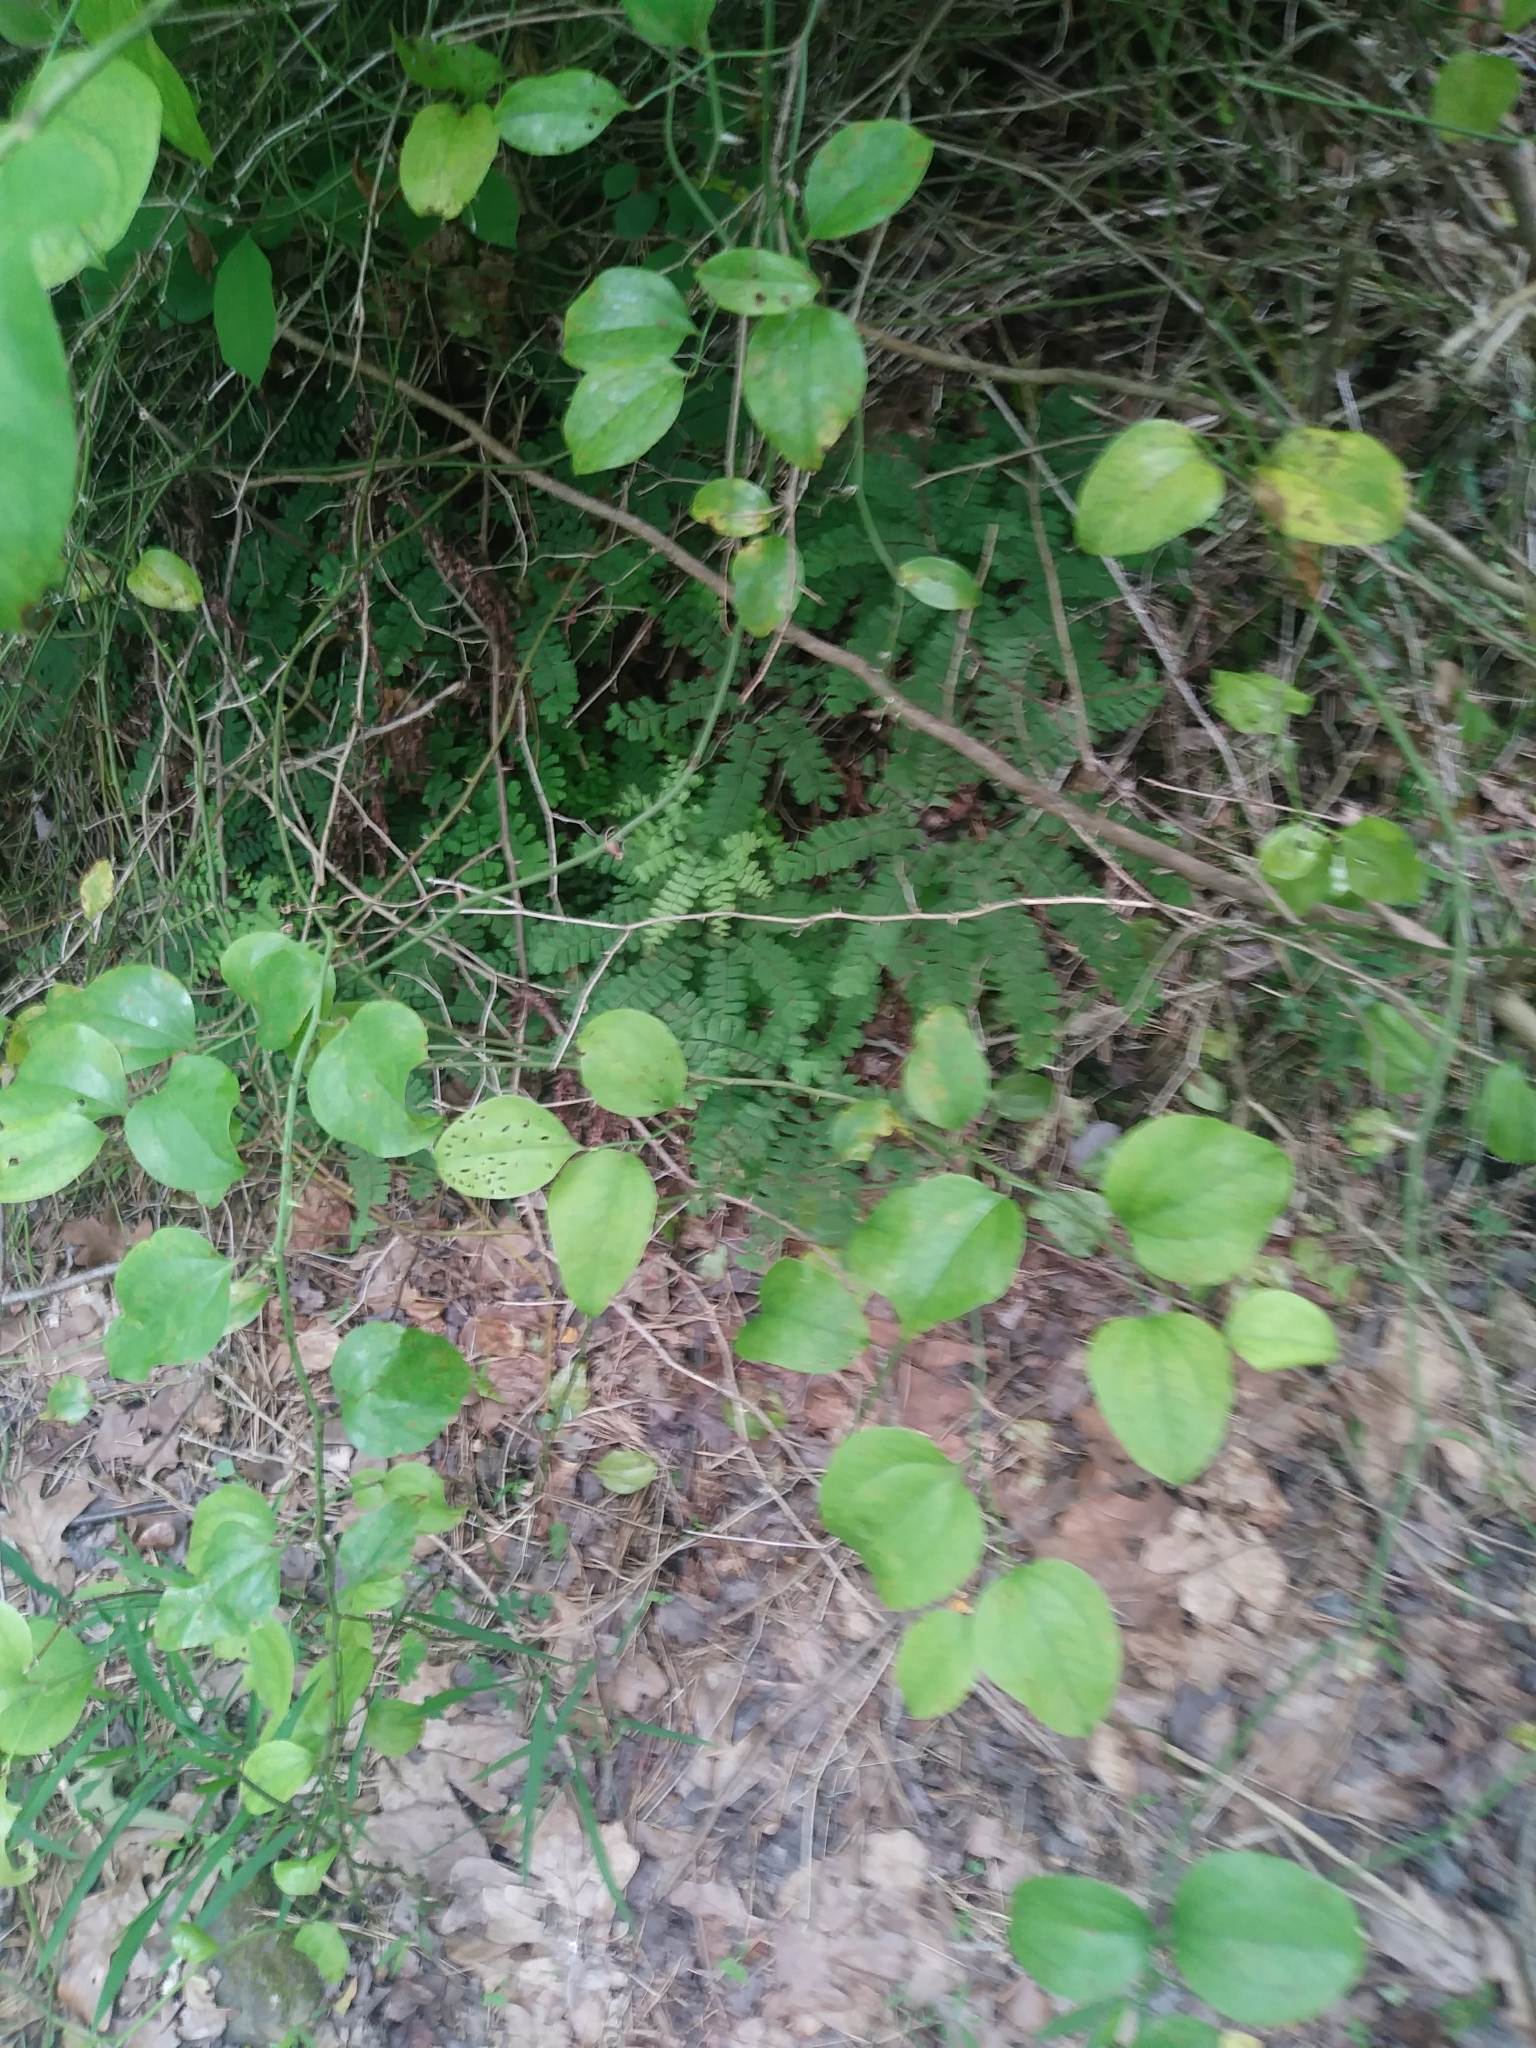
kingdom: Plantae
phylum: Tracheophyta
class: Polypodiopsida
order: Polypodiales
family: Pteridaceae
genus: Adiantum
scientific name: Adiantum pedatum
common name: Five-finger fern
